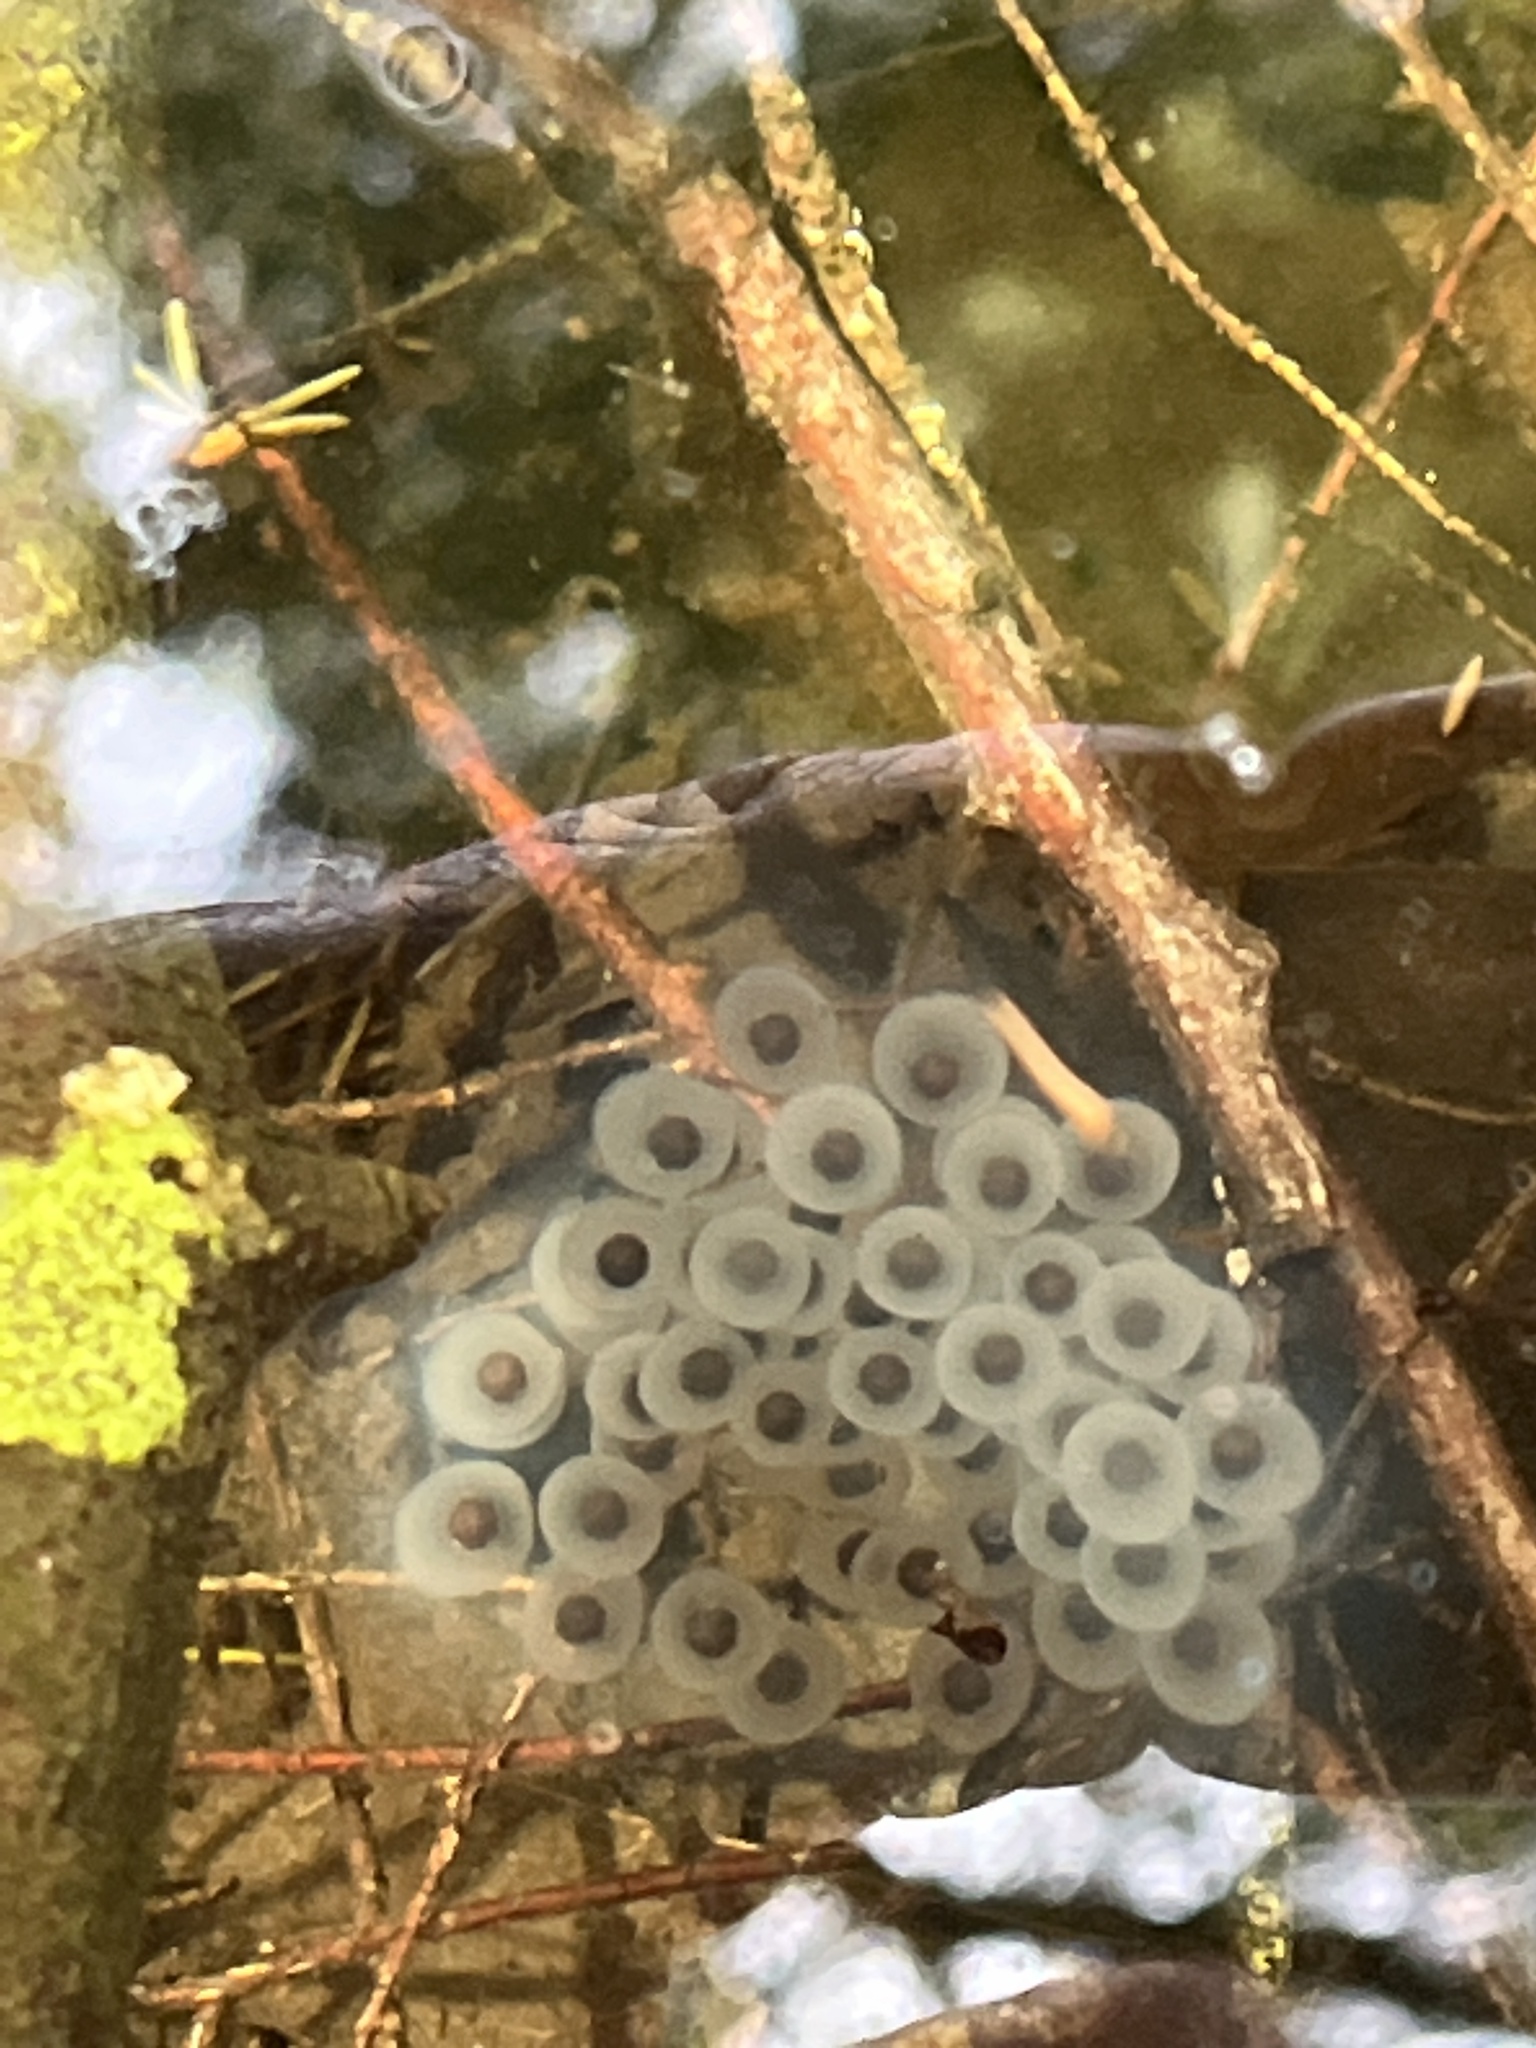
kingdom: Animalia
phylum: Chordata
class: Amphibia
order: Caudata
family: Ambystomatidae
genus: Ambystoma
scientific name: Ambystoma maculatum
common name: Spotted salamander
